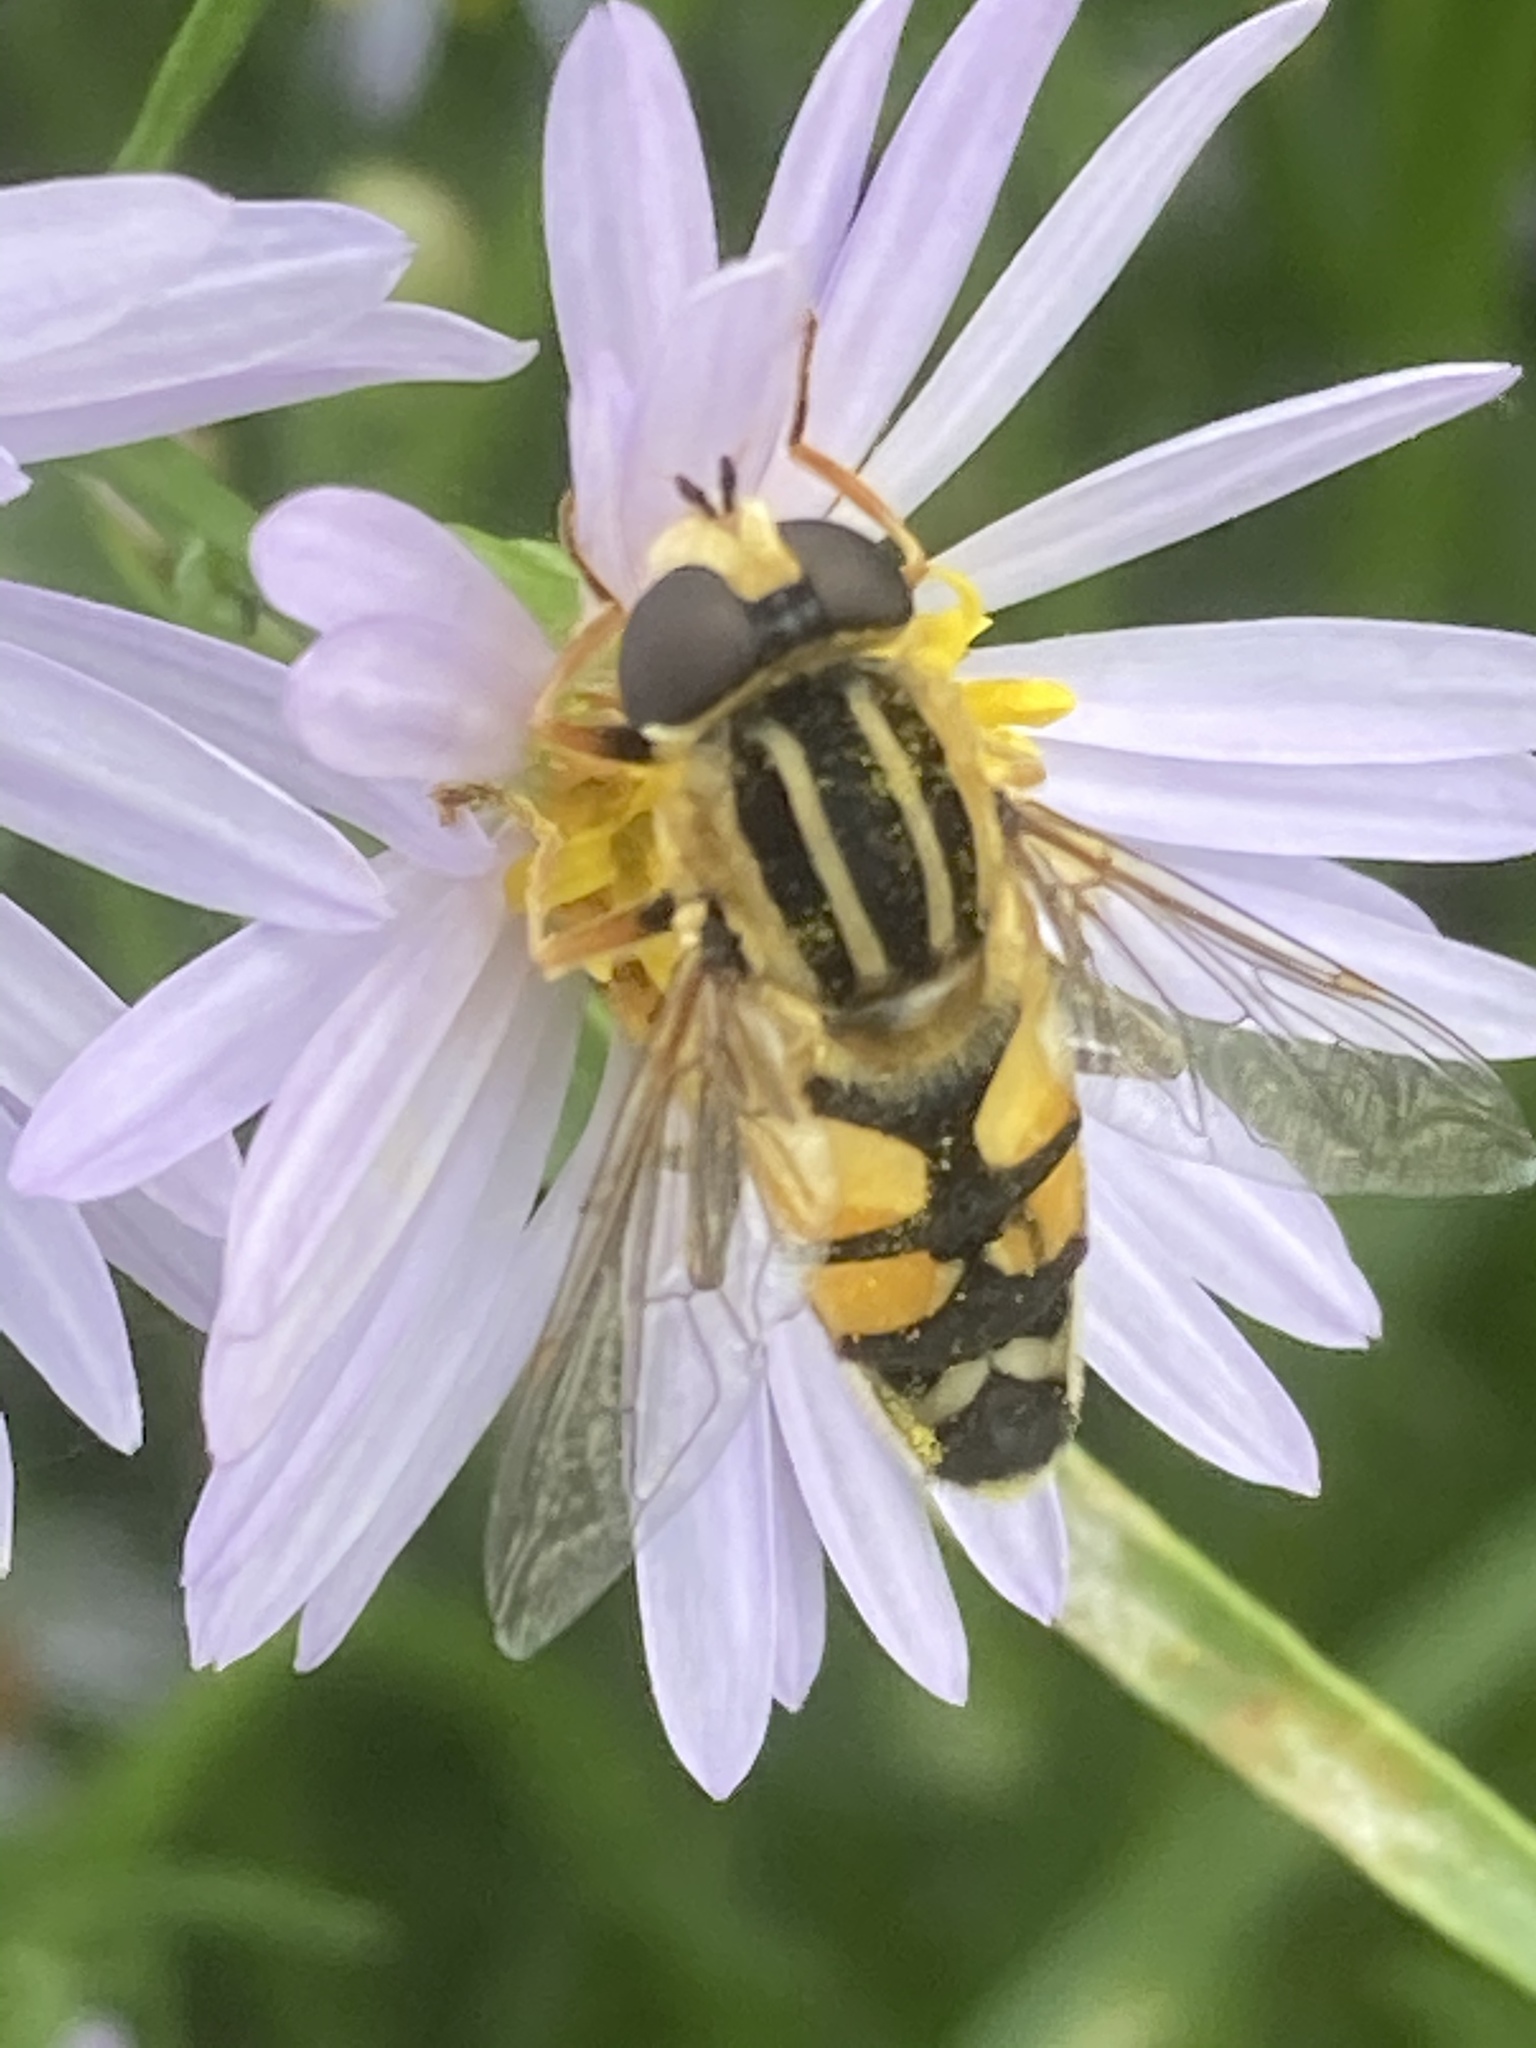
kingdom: Animalia
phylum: Arthropoda
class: Insecta
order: Diptera
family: Syrphidae
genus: Helophilus
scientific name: Helophilus trivittatus
